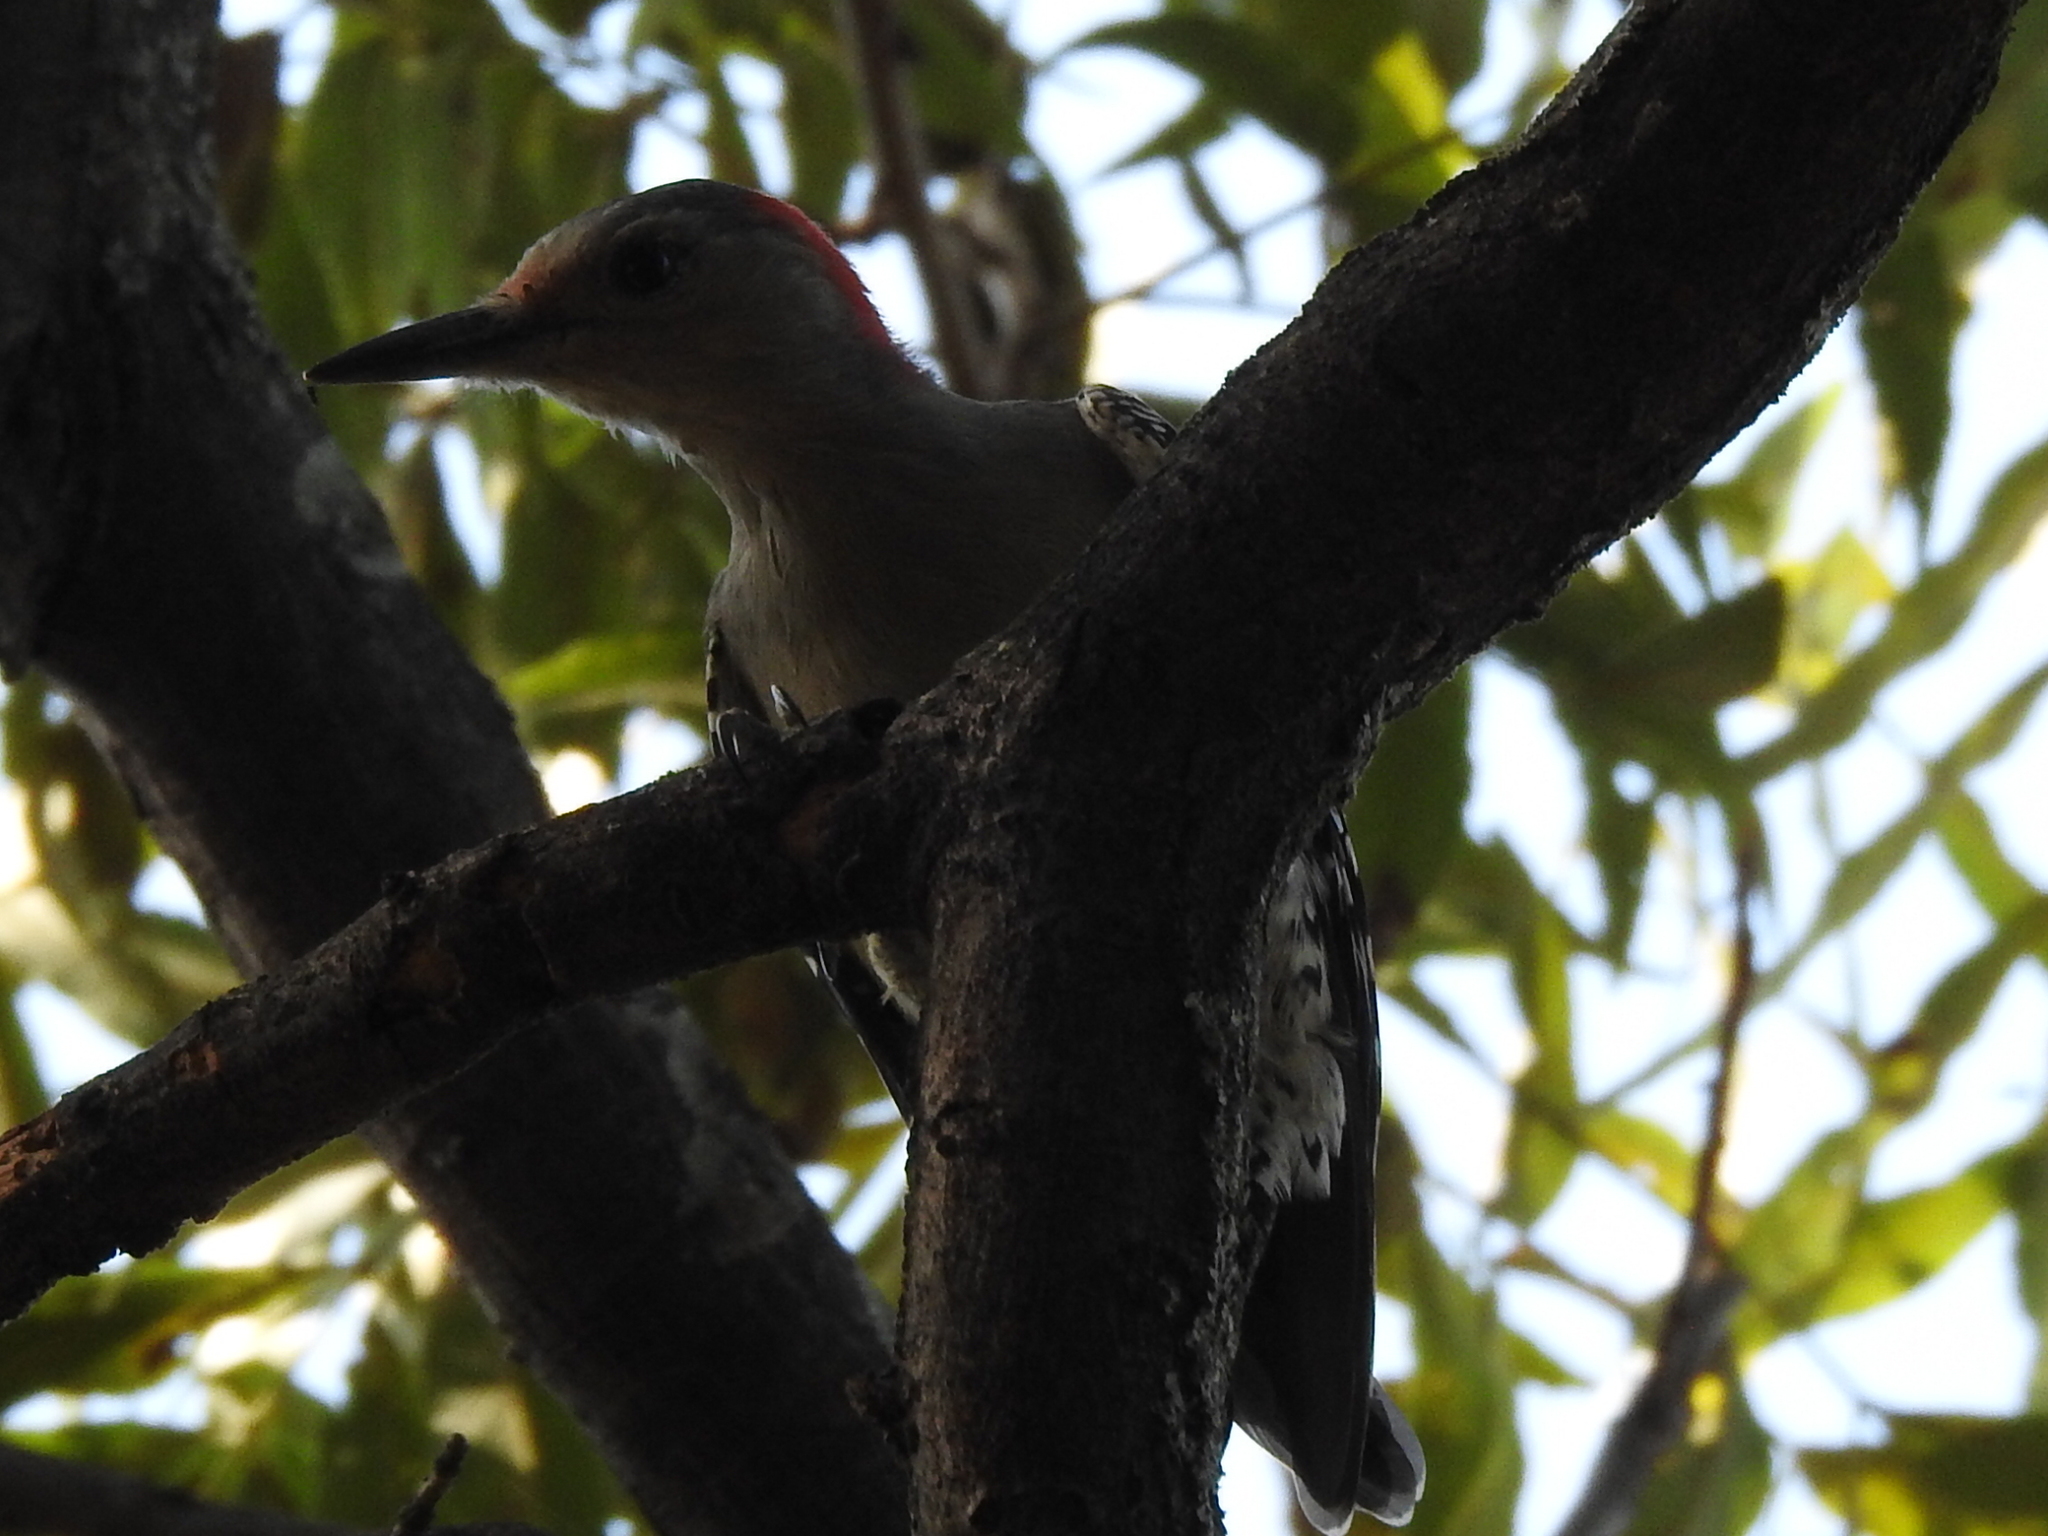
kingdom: Animalia
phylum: Chordata
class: Aves
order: Piciformes
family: Picidae
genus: Melanerpes
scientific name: Melanerpes carolinus
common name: Red-bellied woodpecker
